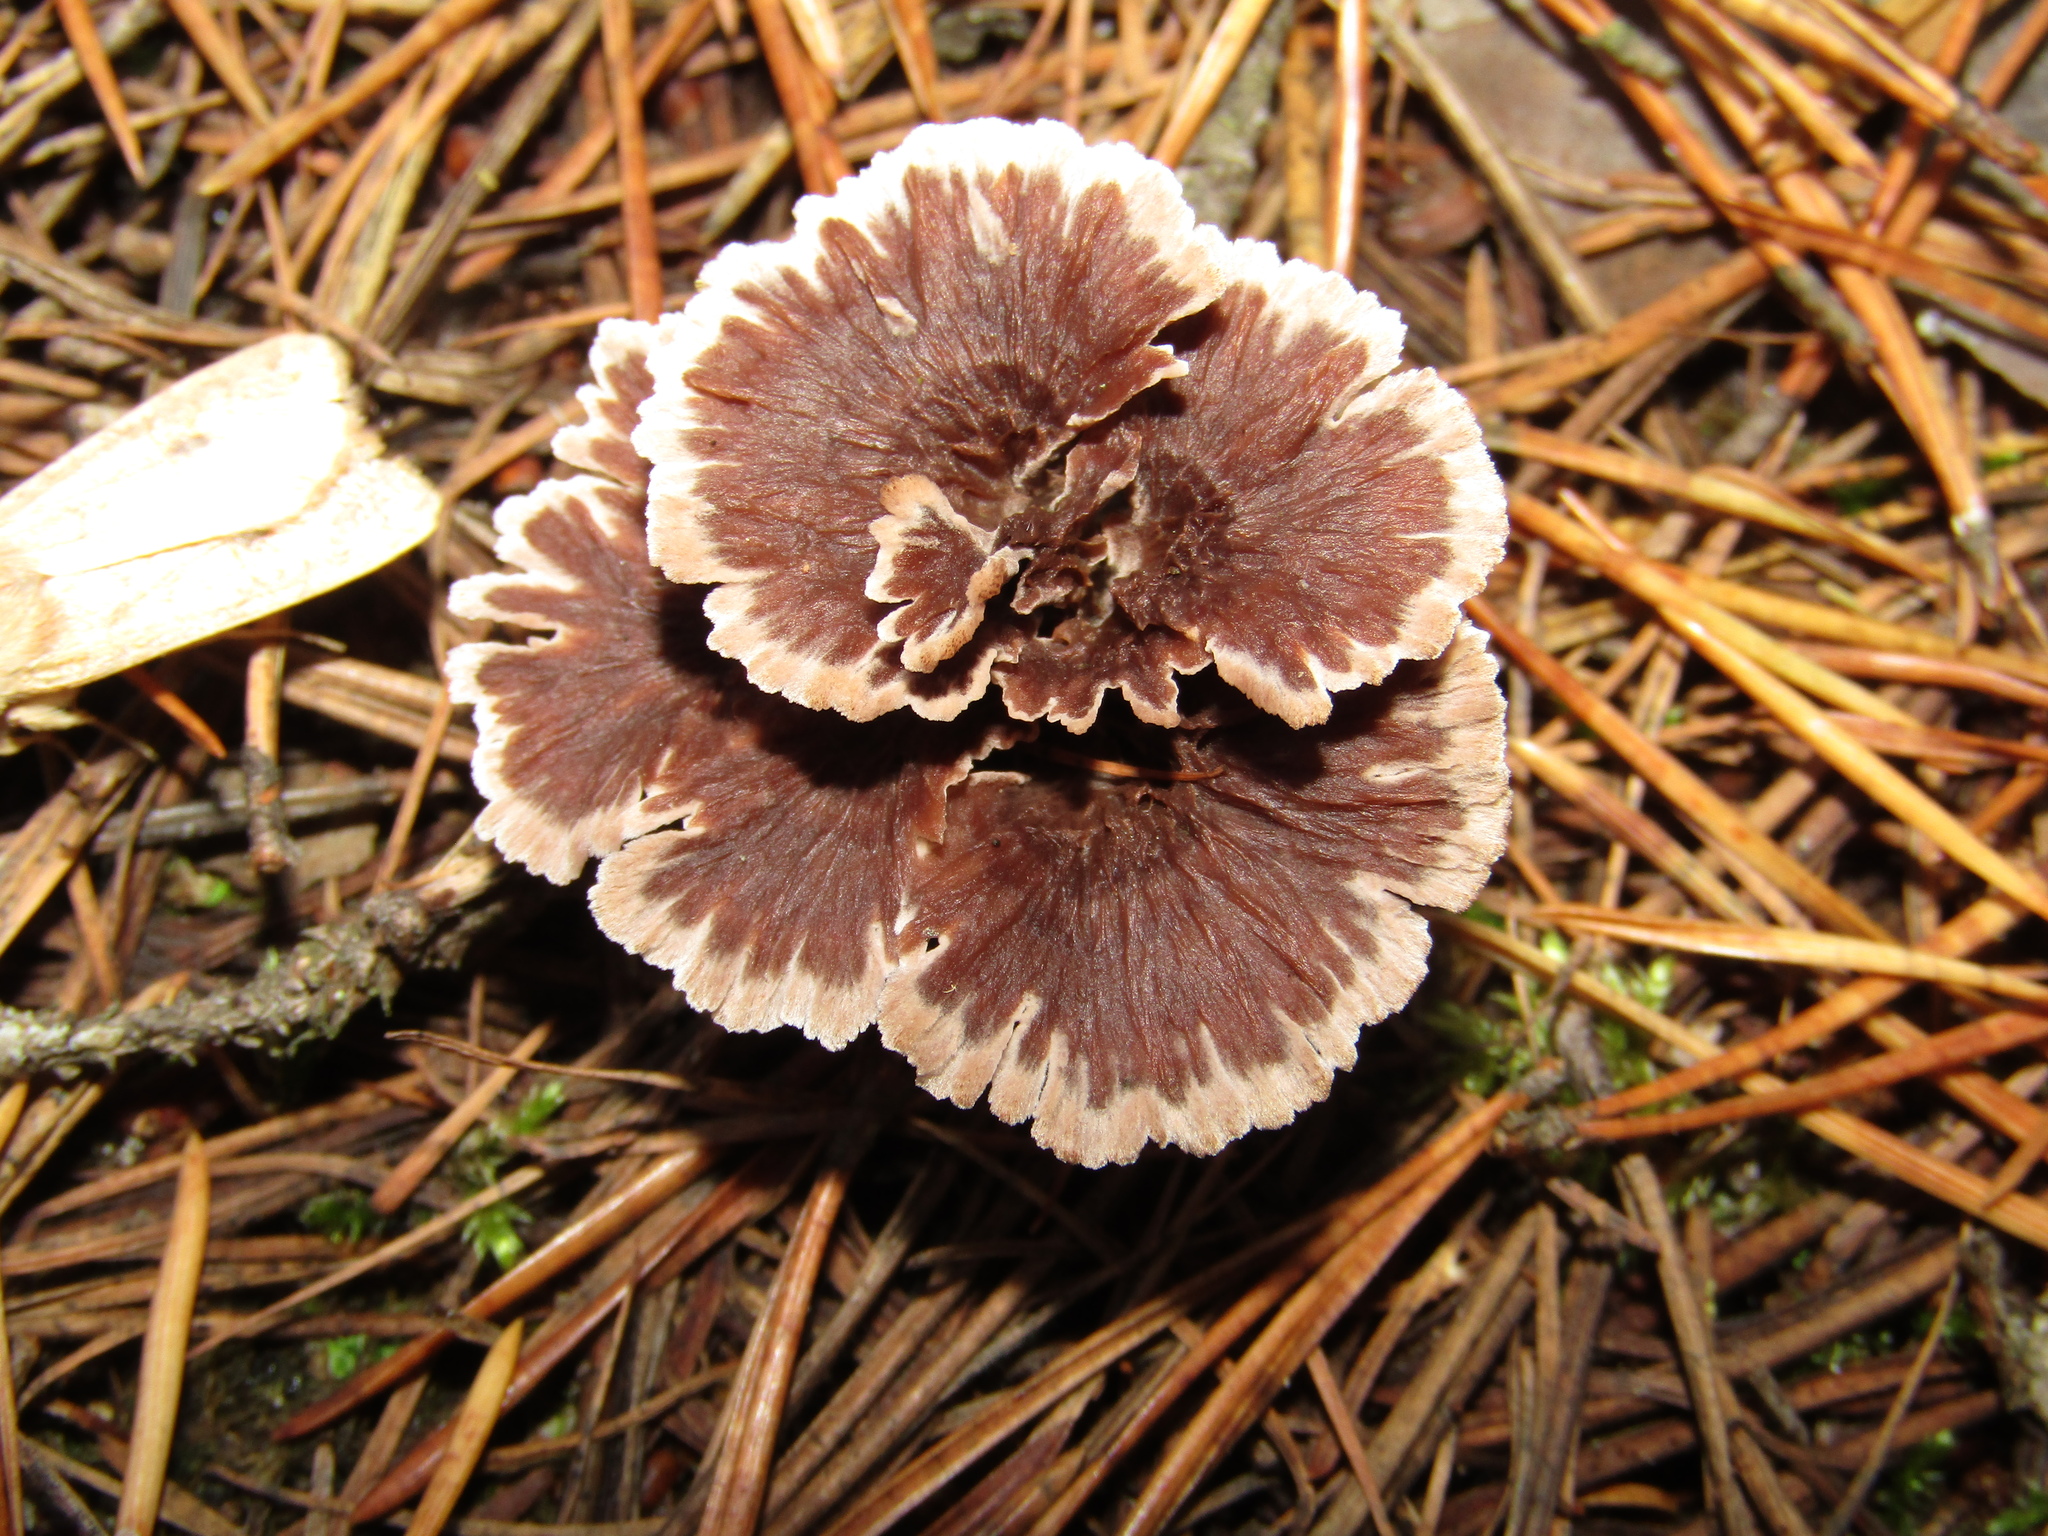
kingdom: Fungi
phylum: Basidiomycota
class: Agaricomycetes
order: Thelephorales
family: Thelephoraceae
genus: Thelephora
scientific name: Thelephora terrestris
